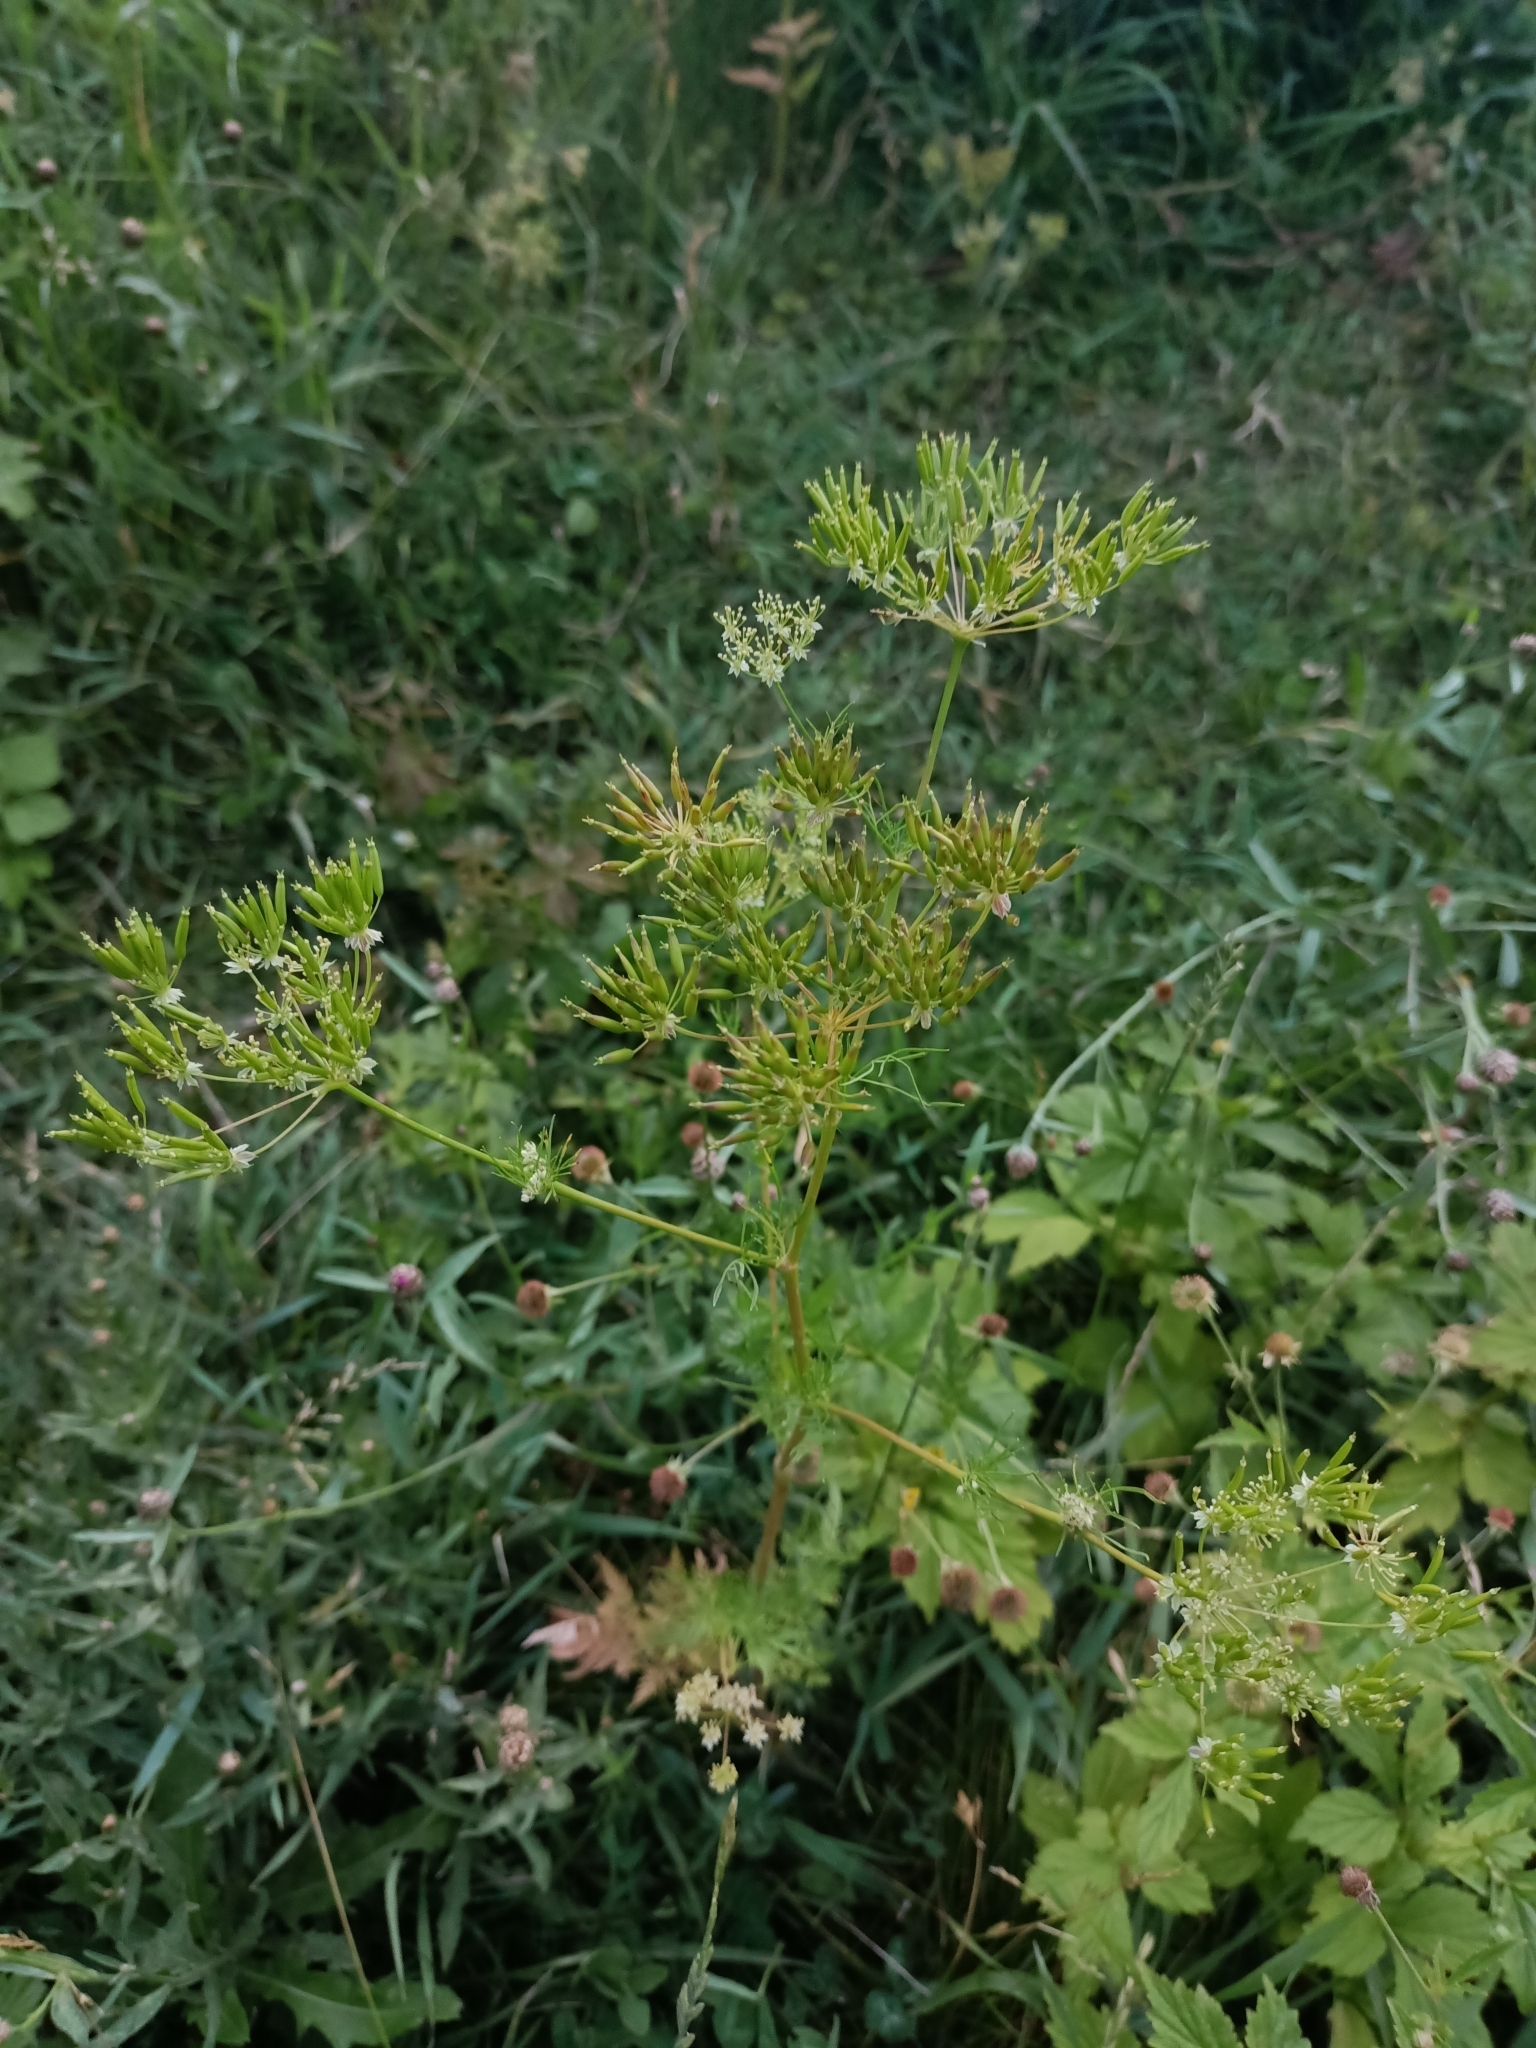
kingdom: Plantae
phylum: Tracheophyta
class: Magnoliopsida
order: Apiales
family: Apiaceae
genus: Chaerophyllum
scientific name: Chaerophyllum prescottii
